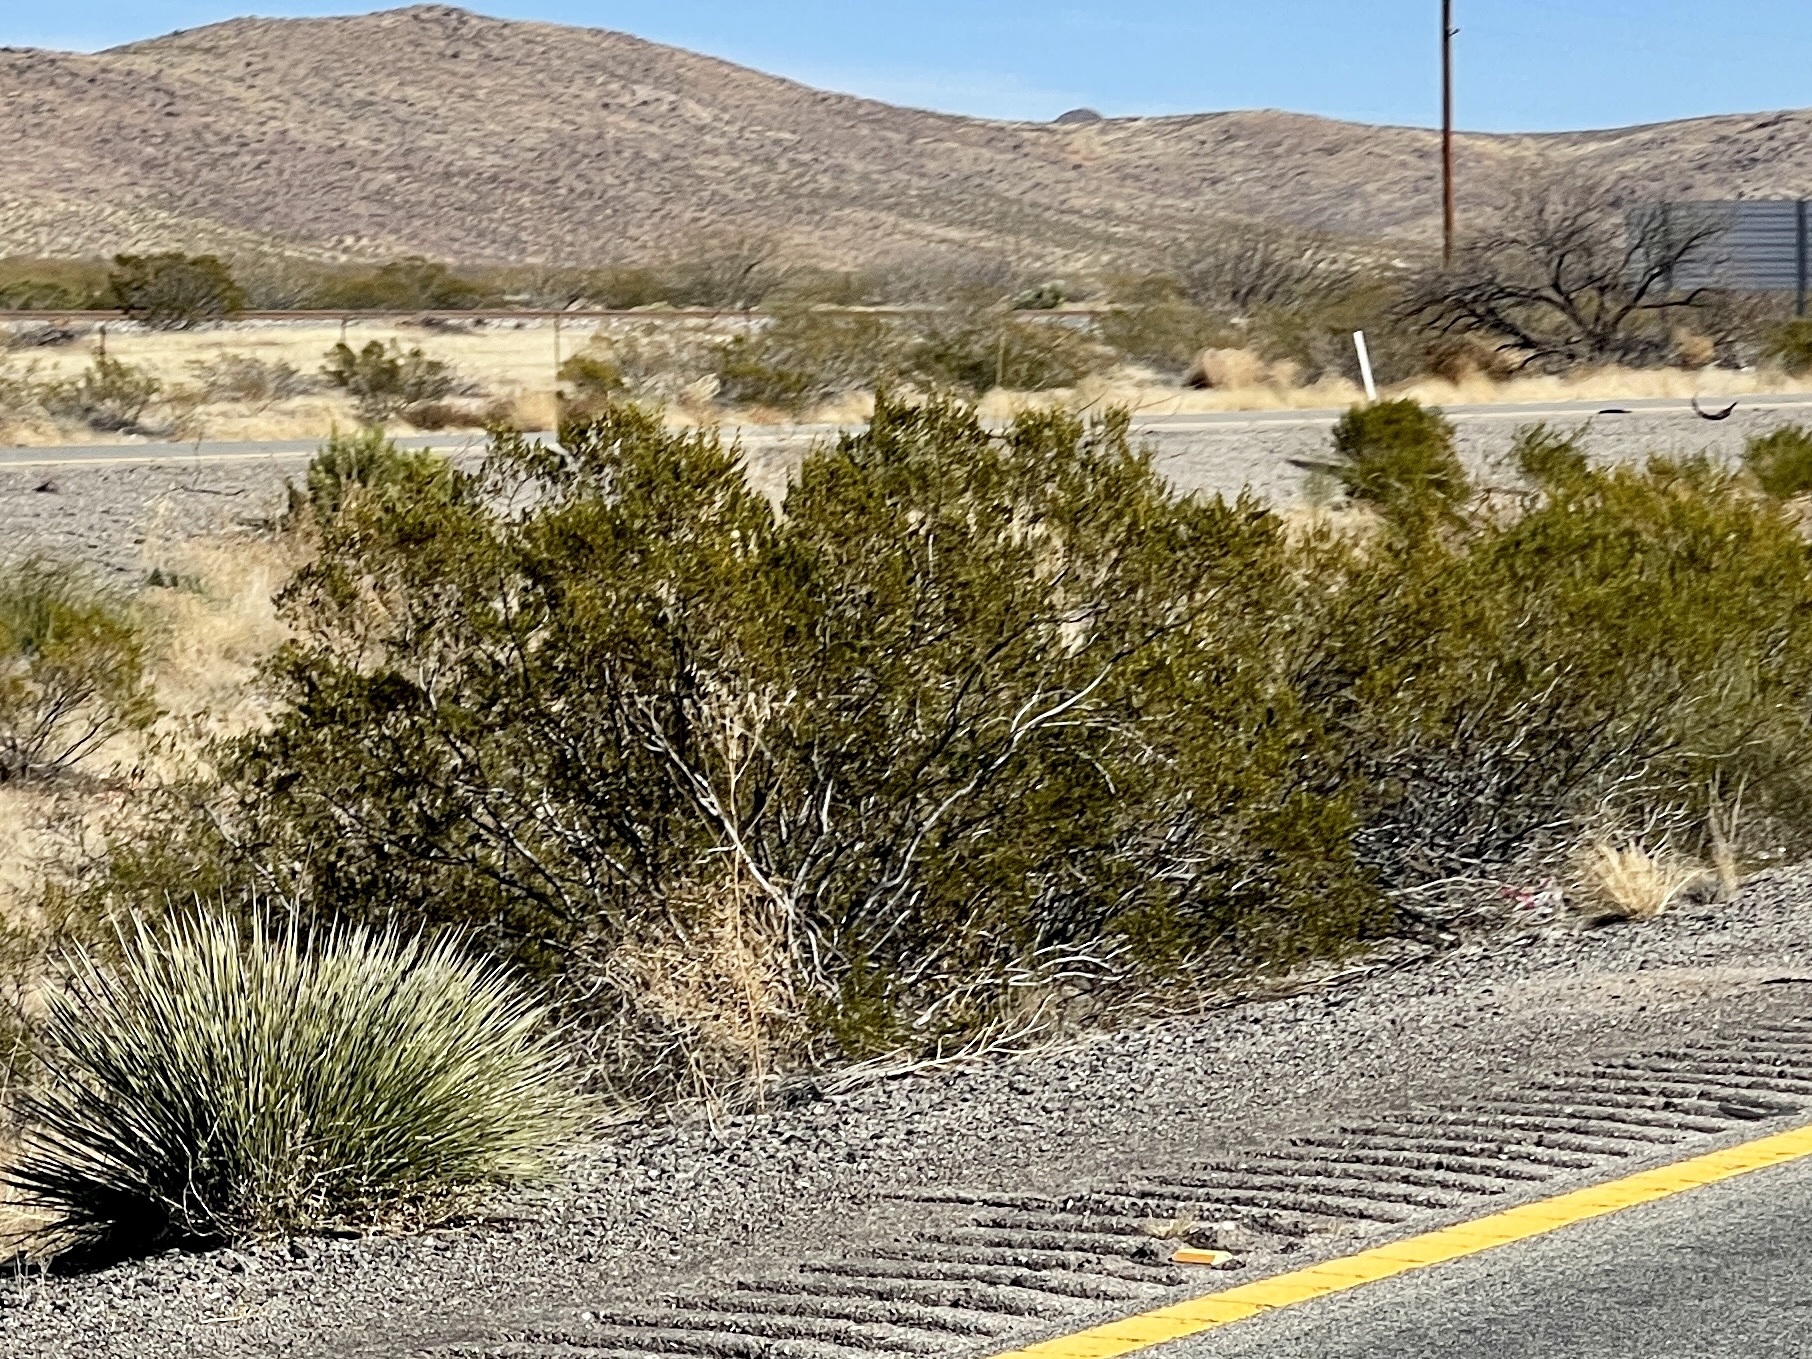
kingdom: Plantae
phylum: Tracheophyta
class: Magnoliopsida
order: Zygophyllales
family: Zygophyllaceae
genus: Larrea
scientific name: Larrea tridentata
